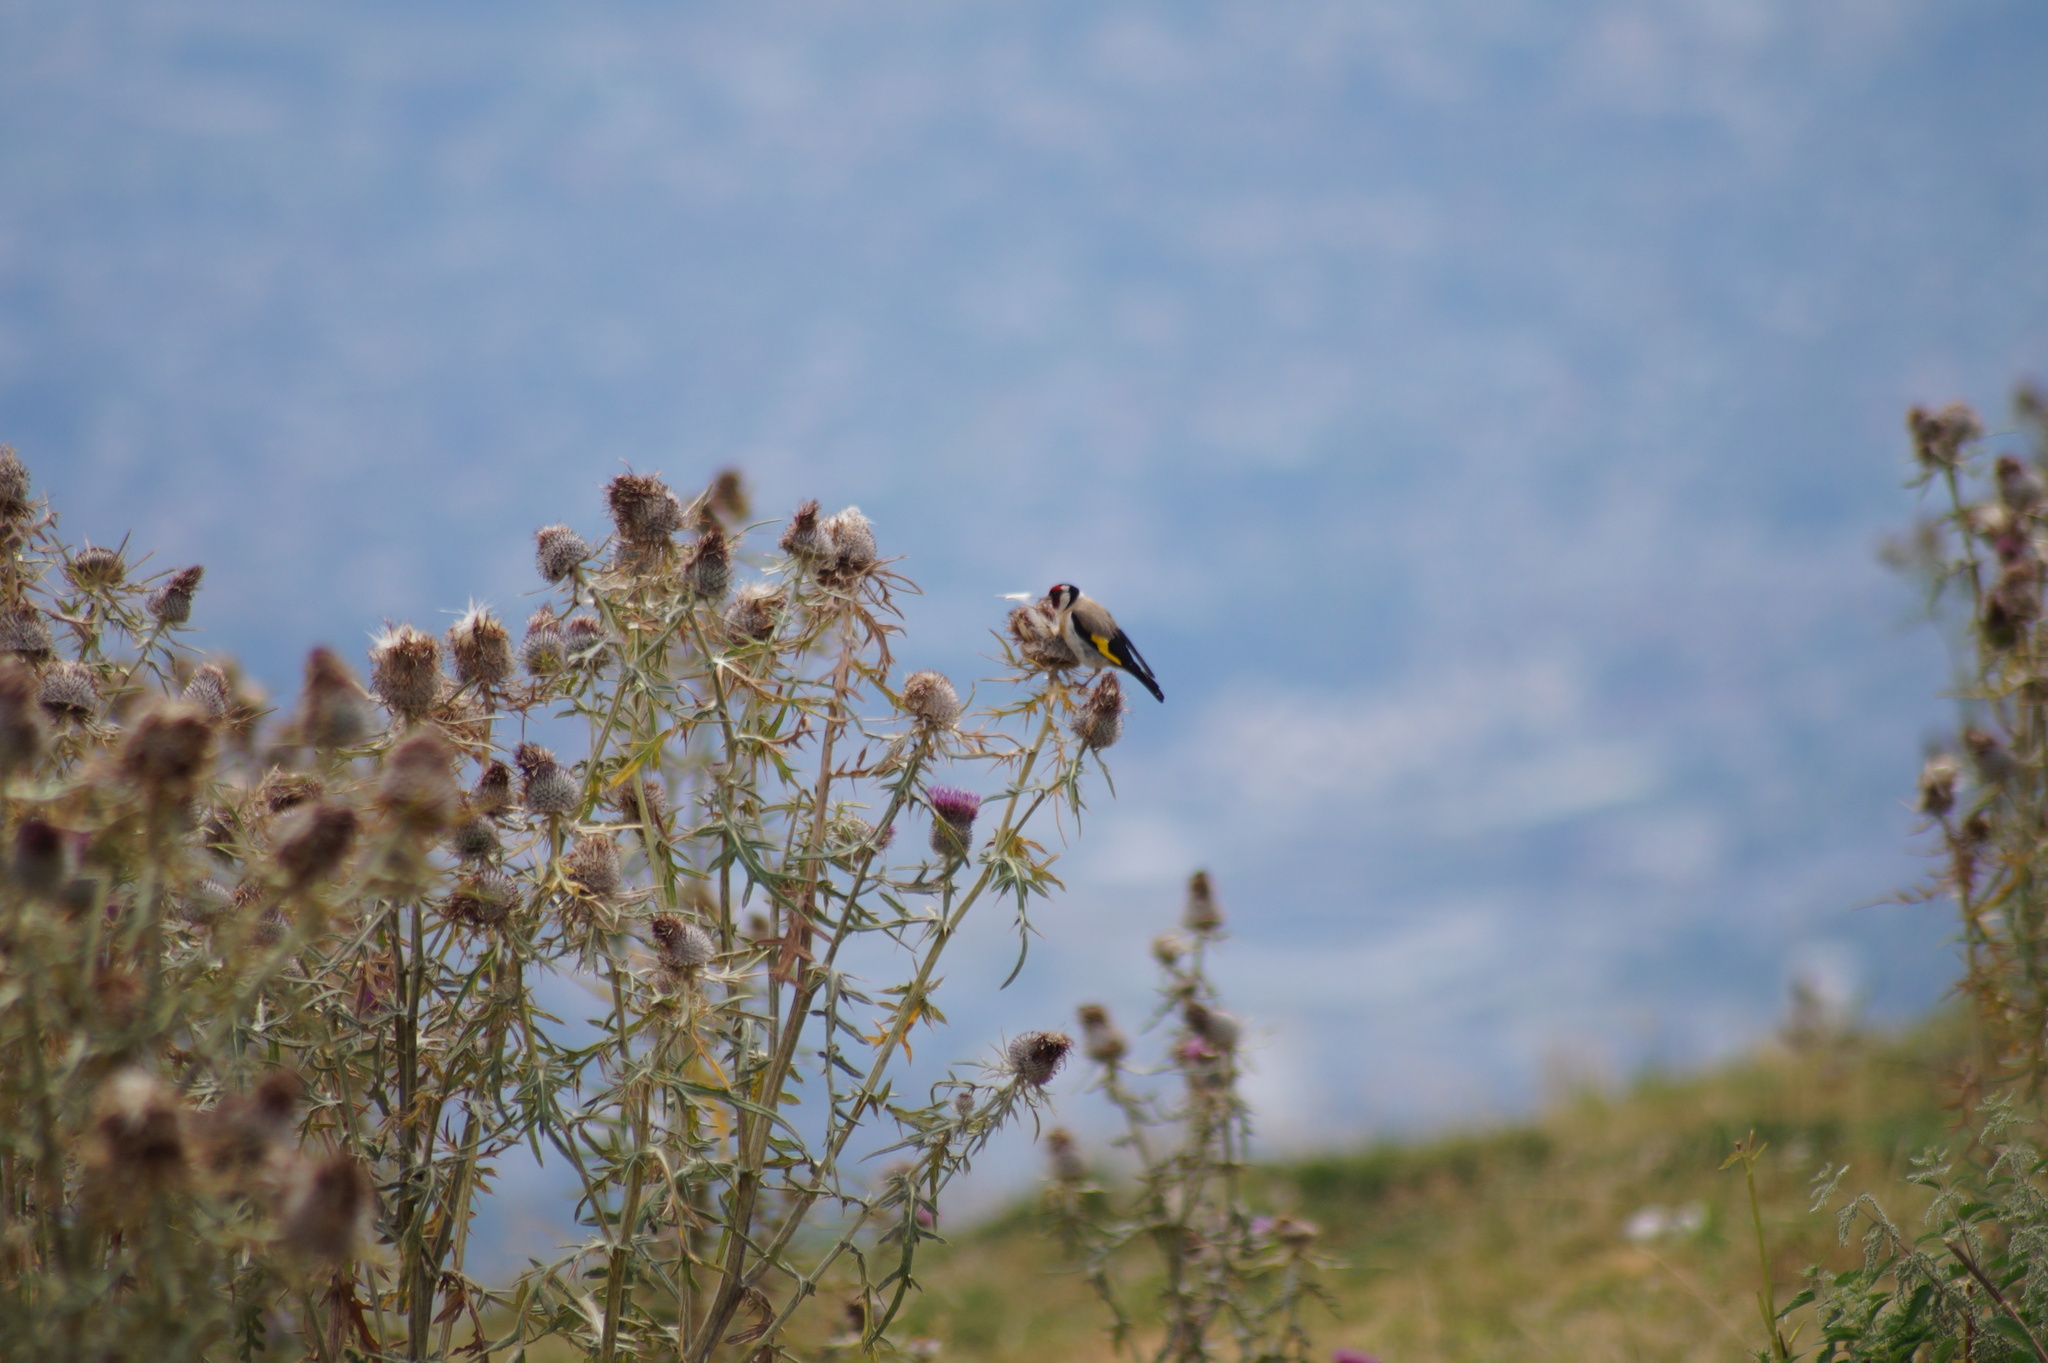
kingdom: Animalia
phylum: Chordata
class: Aves
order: Passeriformes
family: Fringillidae
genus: Carduelis
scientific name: Carduelis carduelis
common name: European goldfinch
